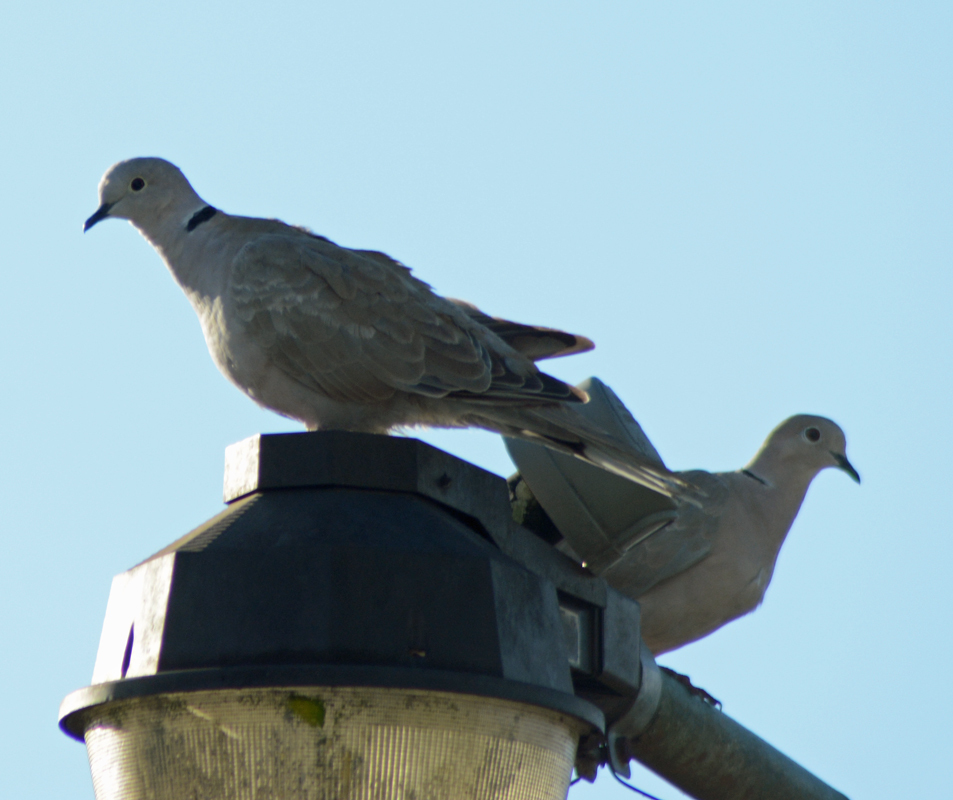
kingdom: Animalia
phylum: Chordata
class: Aves
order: Columbiformes
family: Columbidae
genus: Streptopelia
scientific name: Streptopelia decaocto
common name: Eurasian collared dove
